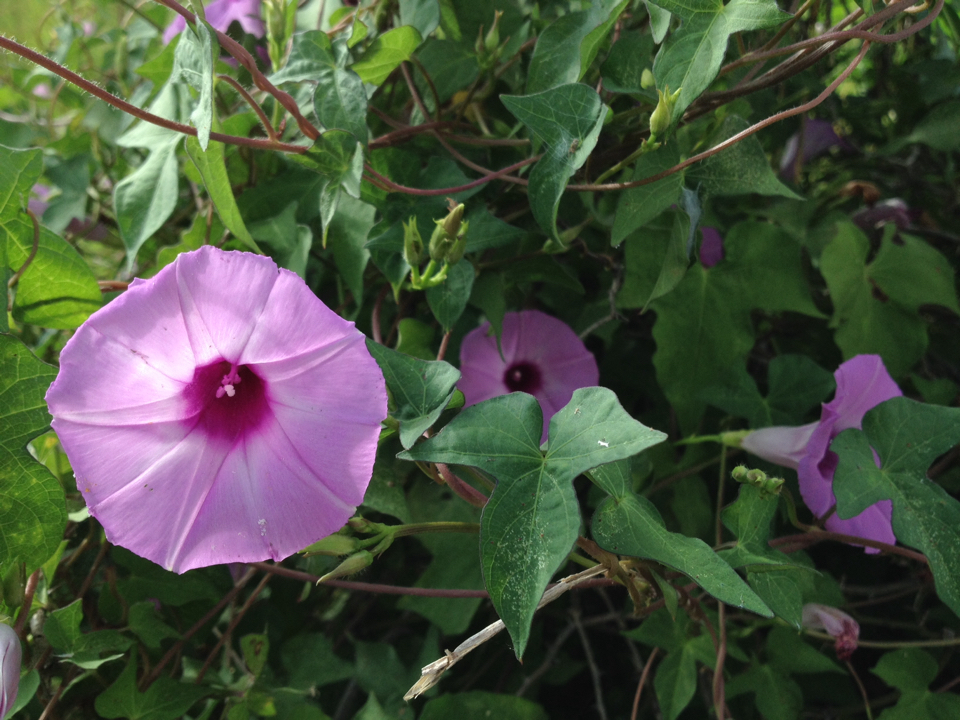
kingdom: Plantae
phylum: Tracheophyta
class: Magnoliopsida
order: Solanales
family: Convolvulaceae
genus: Ipomoea
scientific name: Ipomoea cordatotriloba
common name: Cotton morning glory
